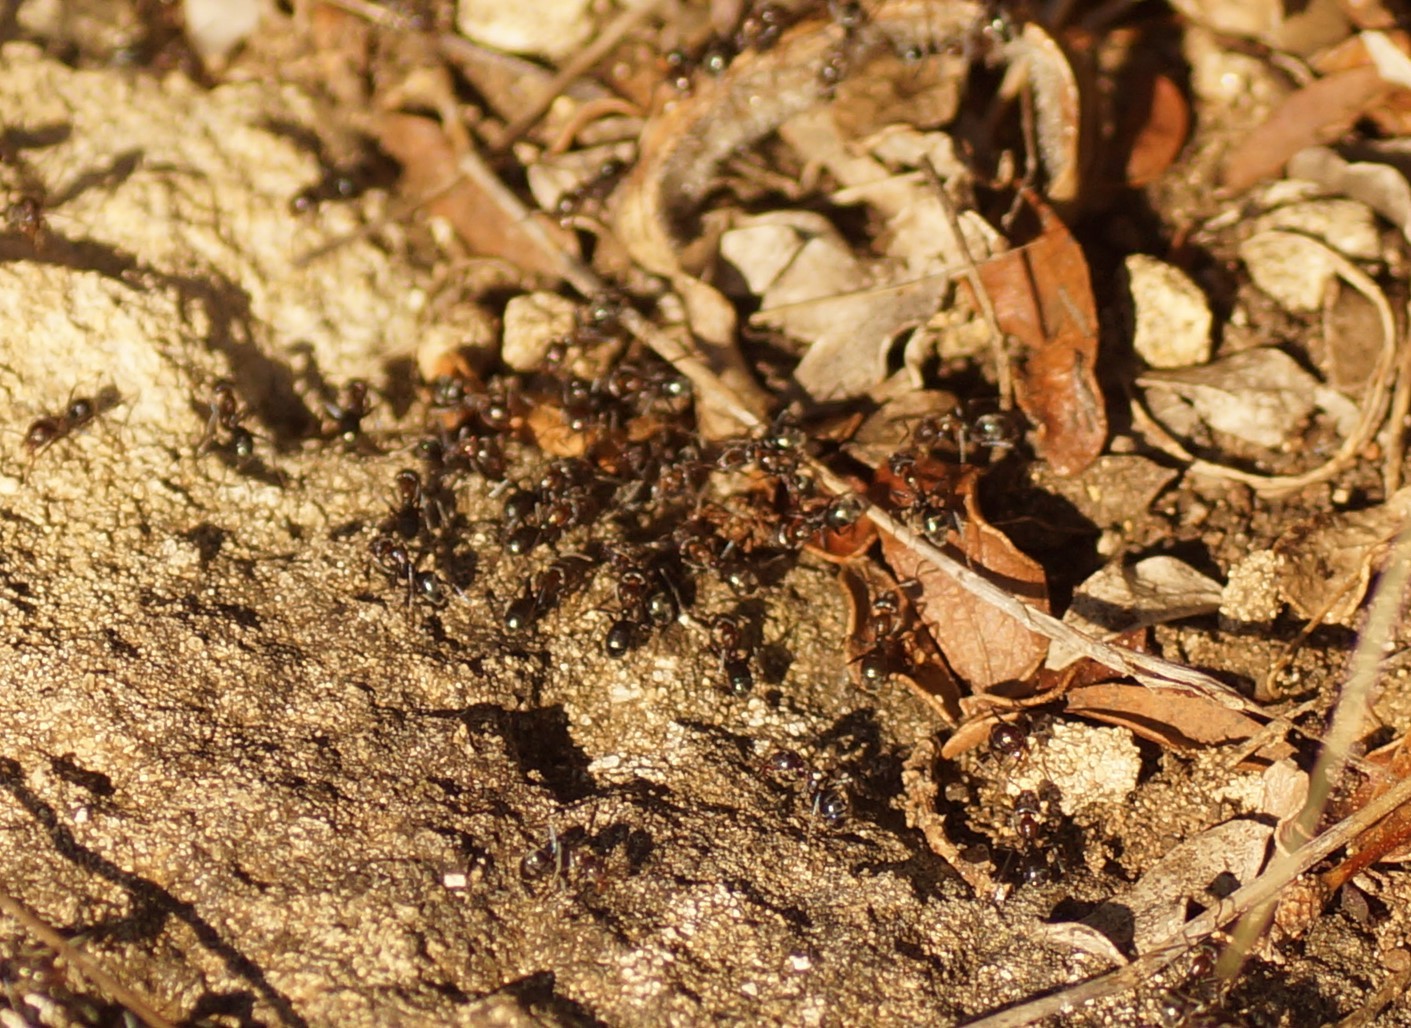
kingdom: Animalia
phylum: Arthropoda
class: Insecta
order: Hymenoptera
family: Formicidae
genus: Iridomyrmex
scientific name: Iridomyrmex
